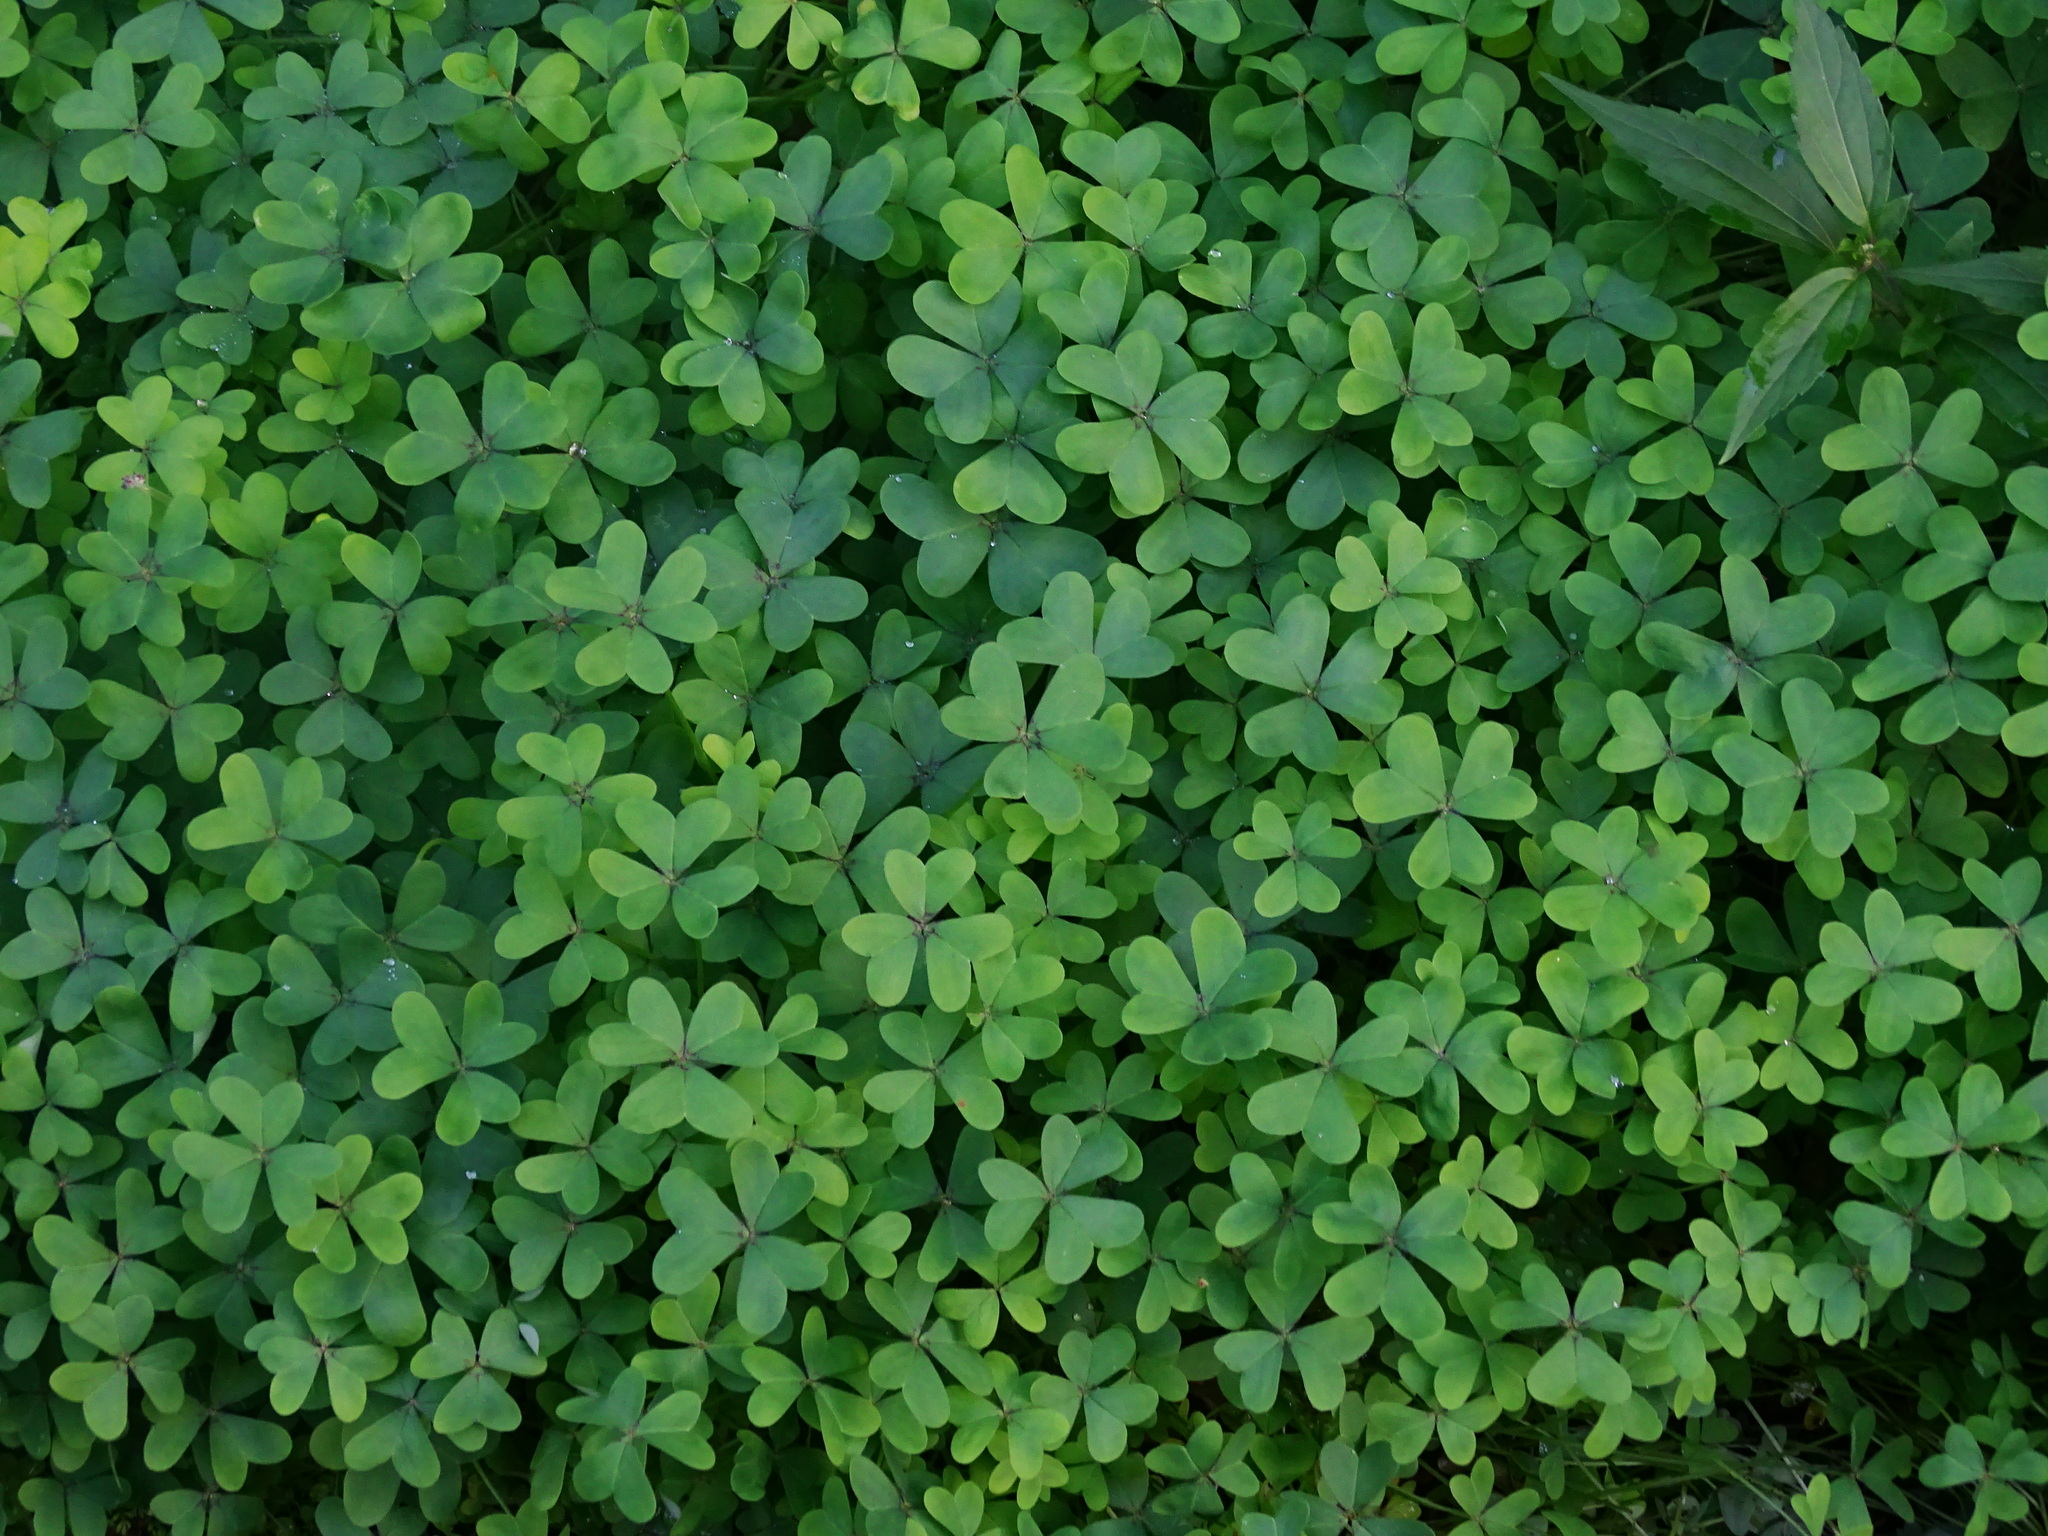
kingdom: Plantae
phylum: Tracheophyta
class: Magnoliopsida
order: Oxalidales
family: Oxalidaceae
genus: Oxalis
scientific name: Oxalis pes-caprae
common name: Bermuda-buttercup
